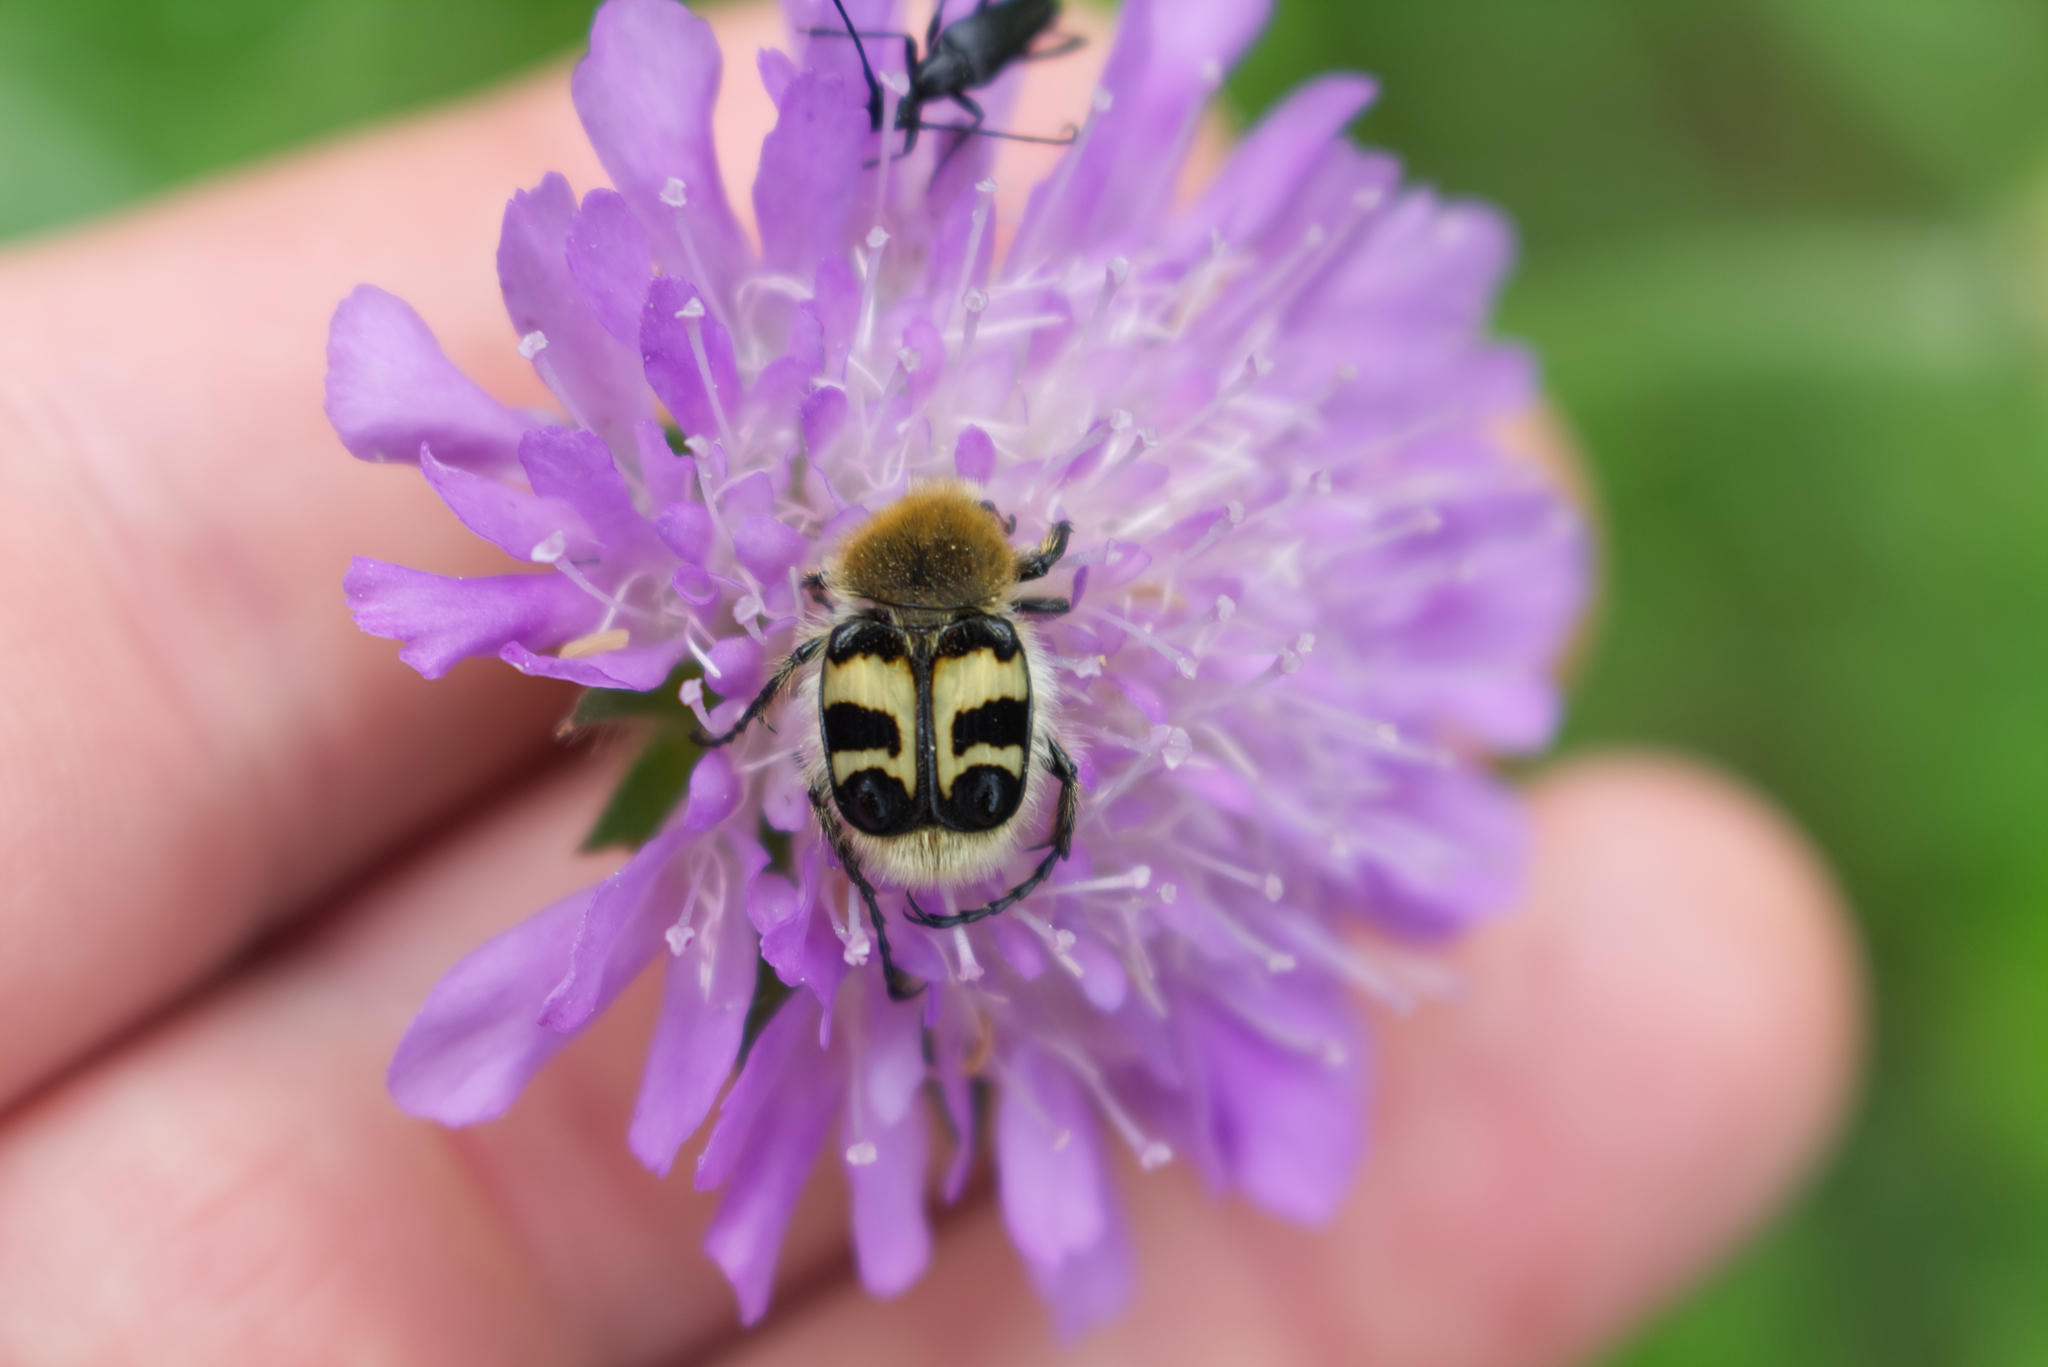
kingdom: Animalia
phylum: Arthropoda
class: Insecta
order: Coleoptera
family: Scarabaeidae
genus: Trichius
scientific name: Trichius fasciatus
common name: Bee beetle
